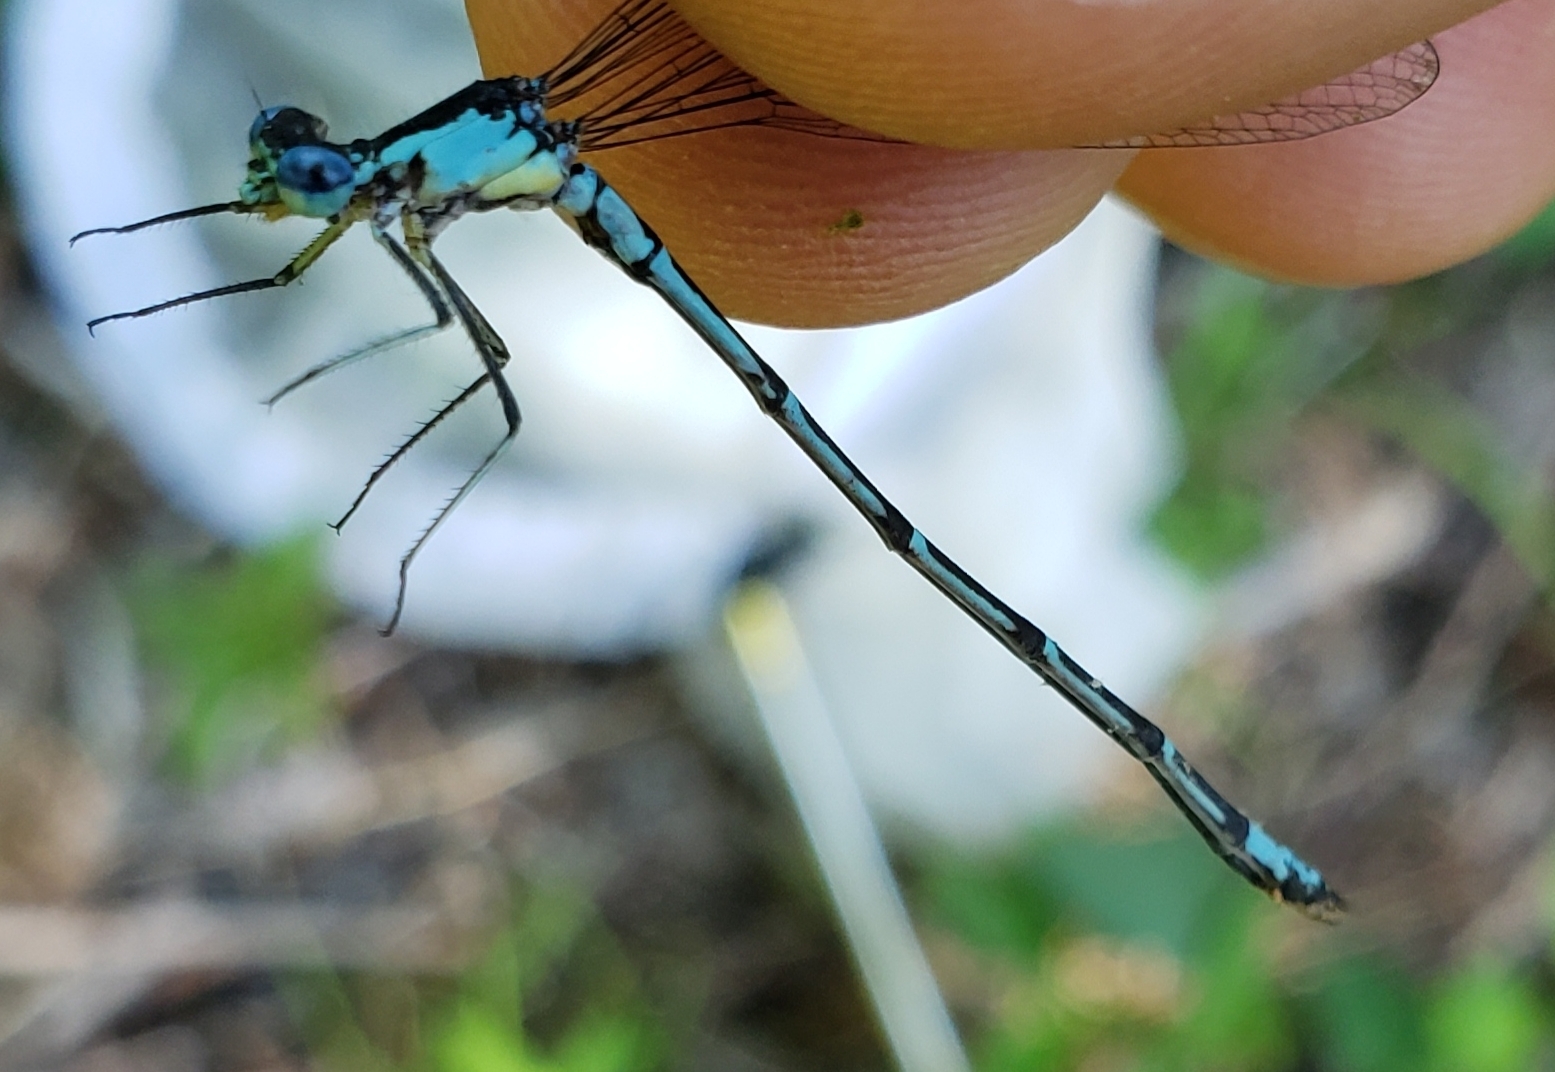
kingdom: Animalia
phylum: Arthropoda
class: Insecta
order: Odonata
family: Coenagrionidae
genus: Chromagrion
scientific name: Chromagrion conditum
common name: Aurora damsel
